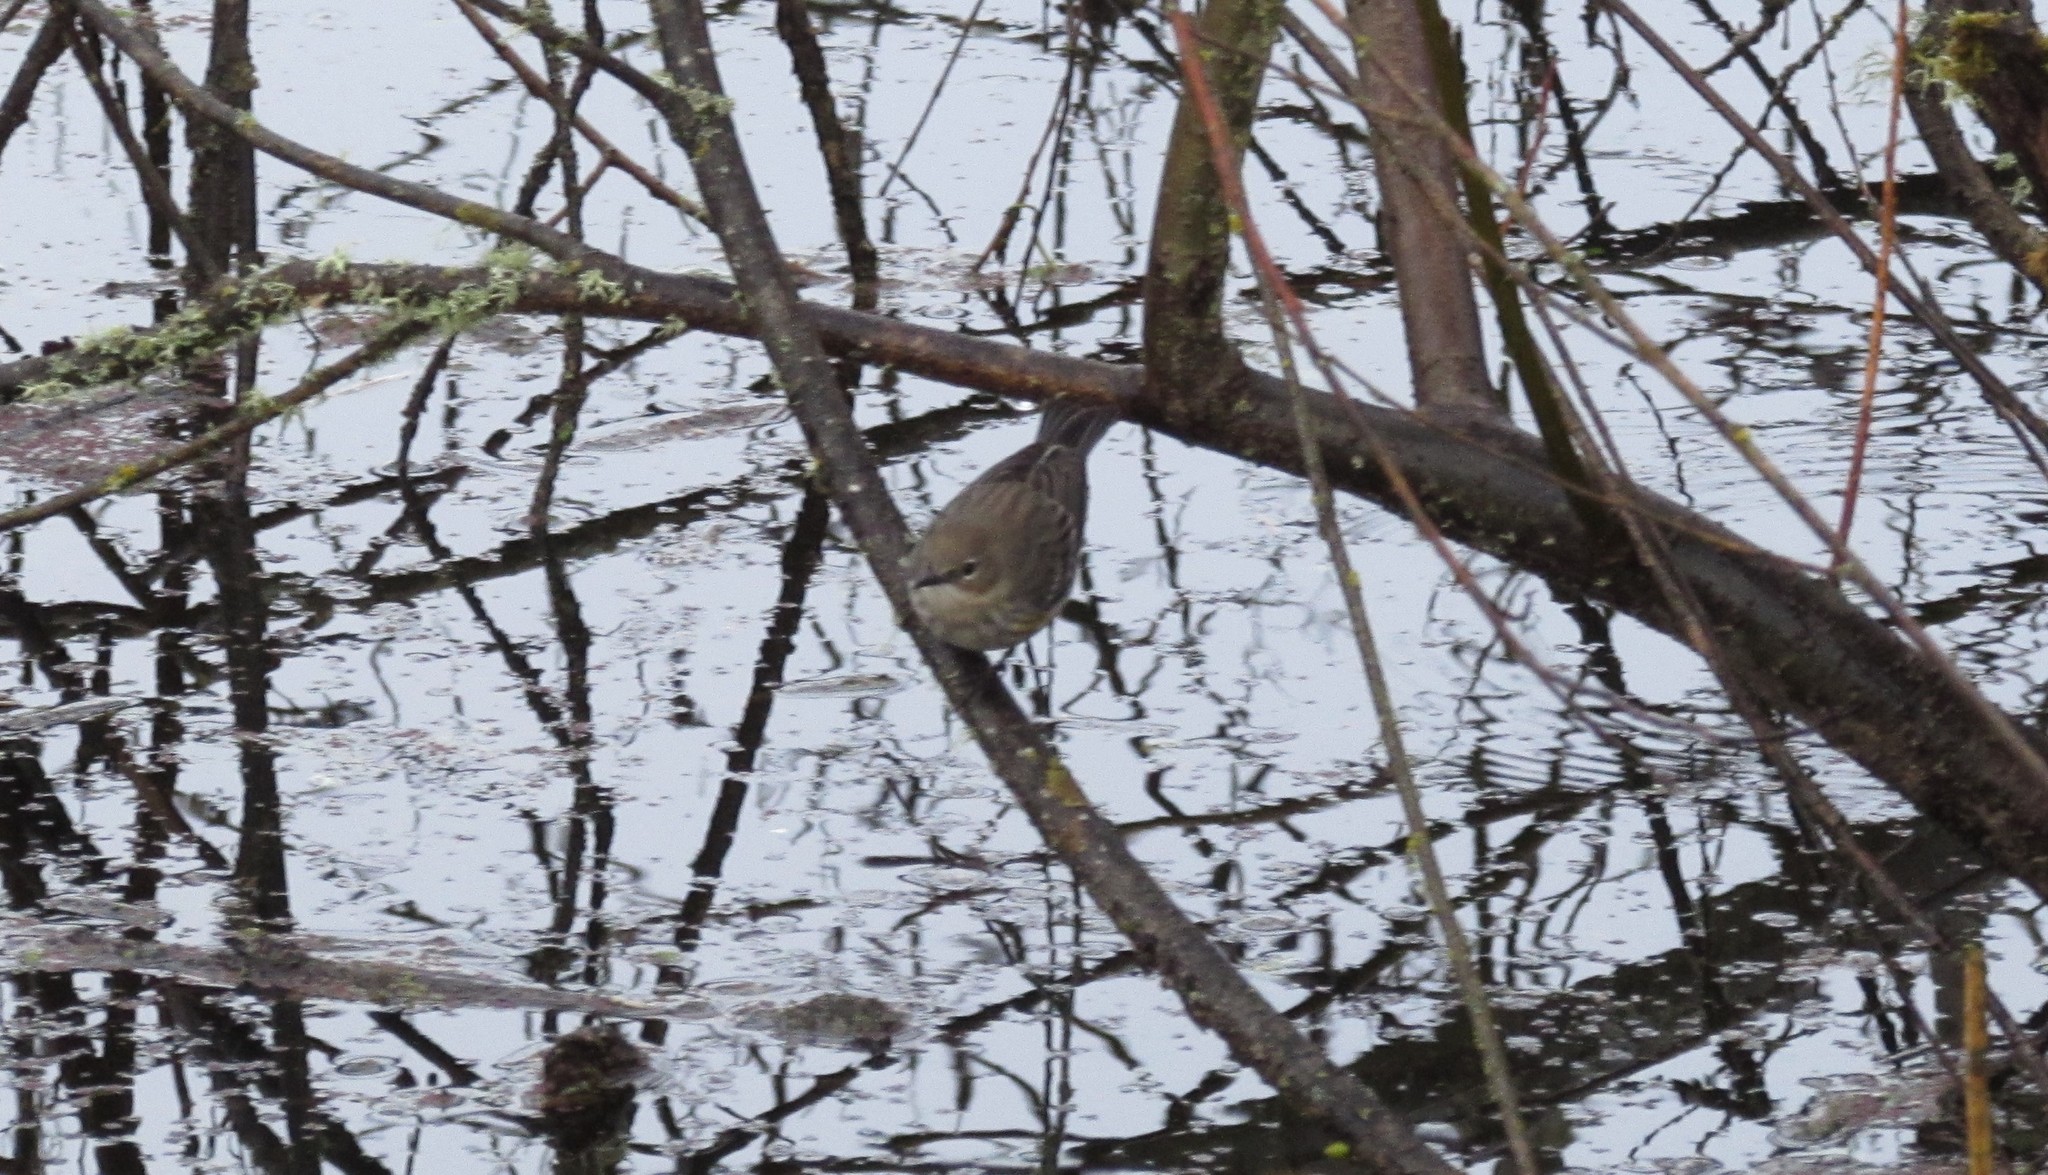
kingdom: Animalia
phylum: Chordata
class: Aves
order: Passeriformes
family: Parulidae
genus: Setophaga
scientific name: Setophaga coronata
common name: Myrtle warbler
